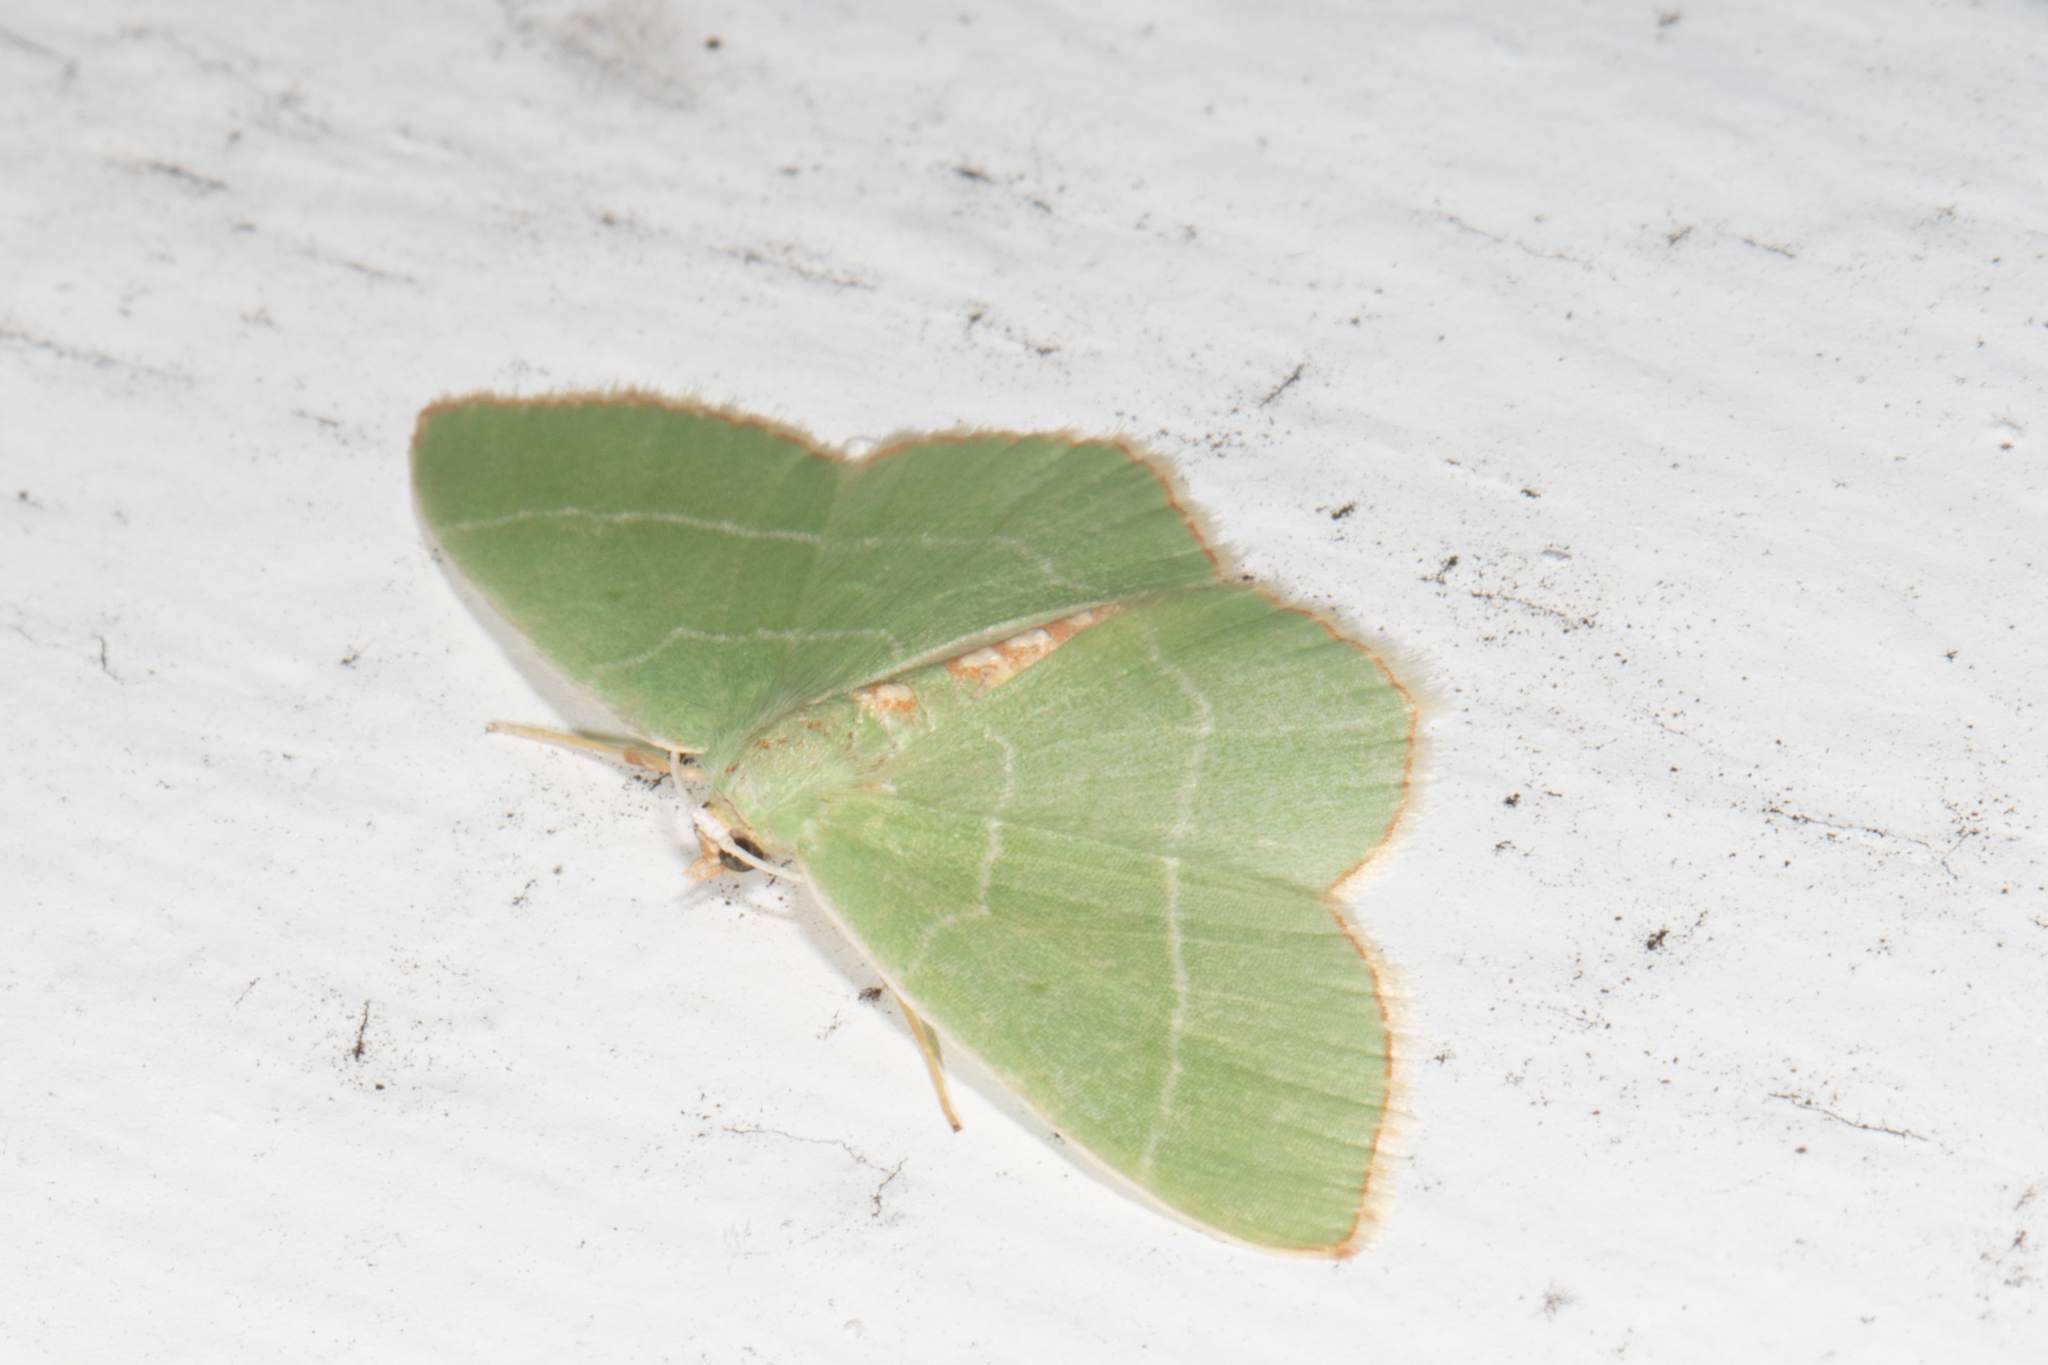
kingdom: Animalia
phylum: Arthropoda
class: Insecta
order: Lepidoptera
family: Geometridae
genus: Nemoria
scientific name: Nemoria bistriaria
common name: Red-fringed emerald
